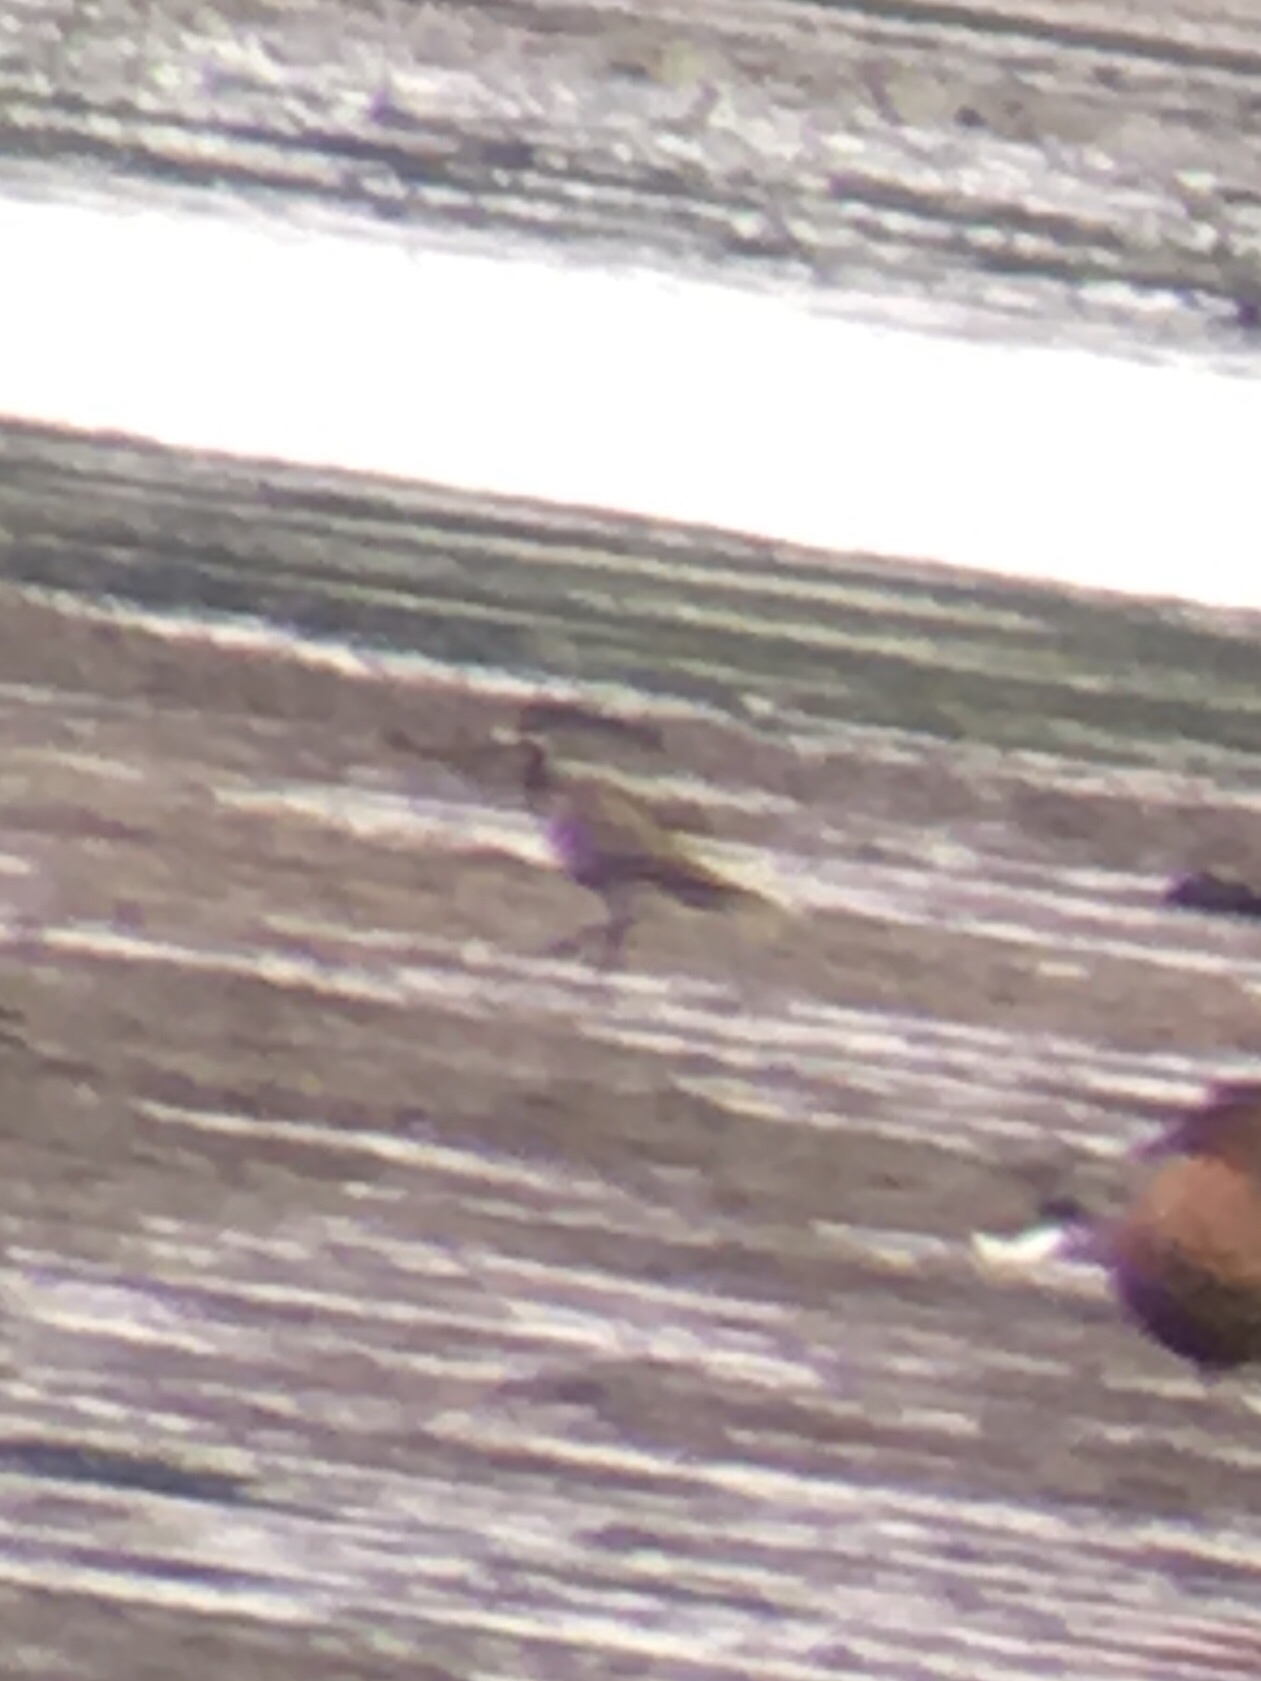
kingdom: Animalia
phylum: Chordata
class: Aves
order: Charadriiformes
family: Charadriidae
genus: Pluvialis
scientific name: Pluvialis dominica
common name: American golden plover
